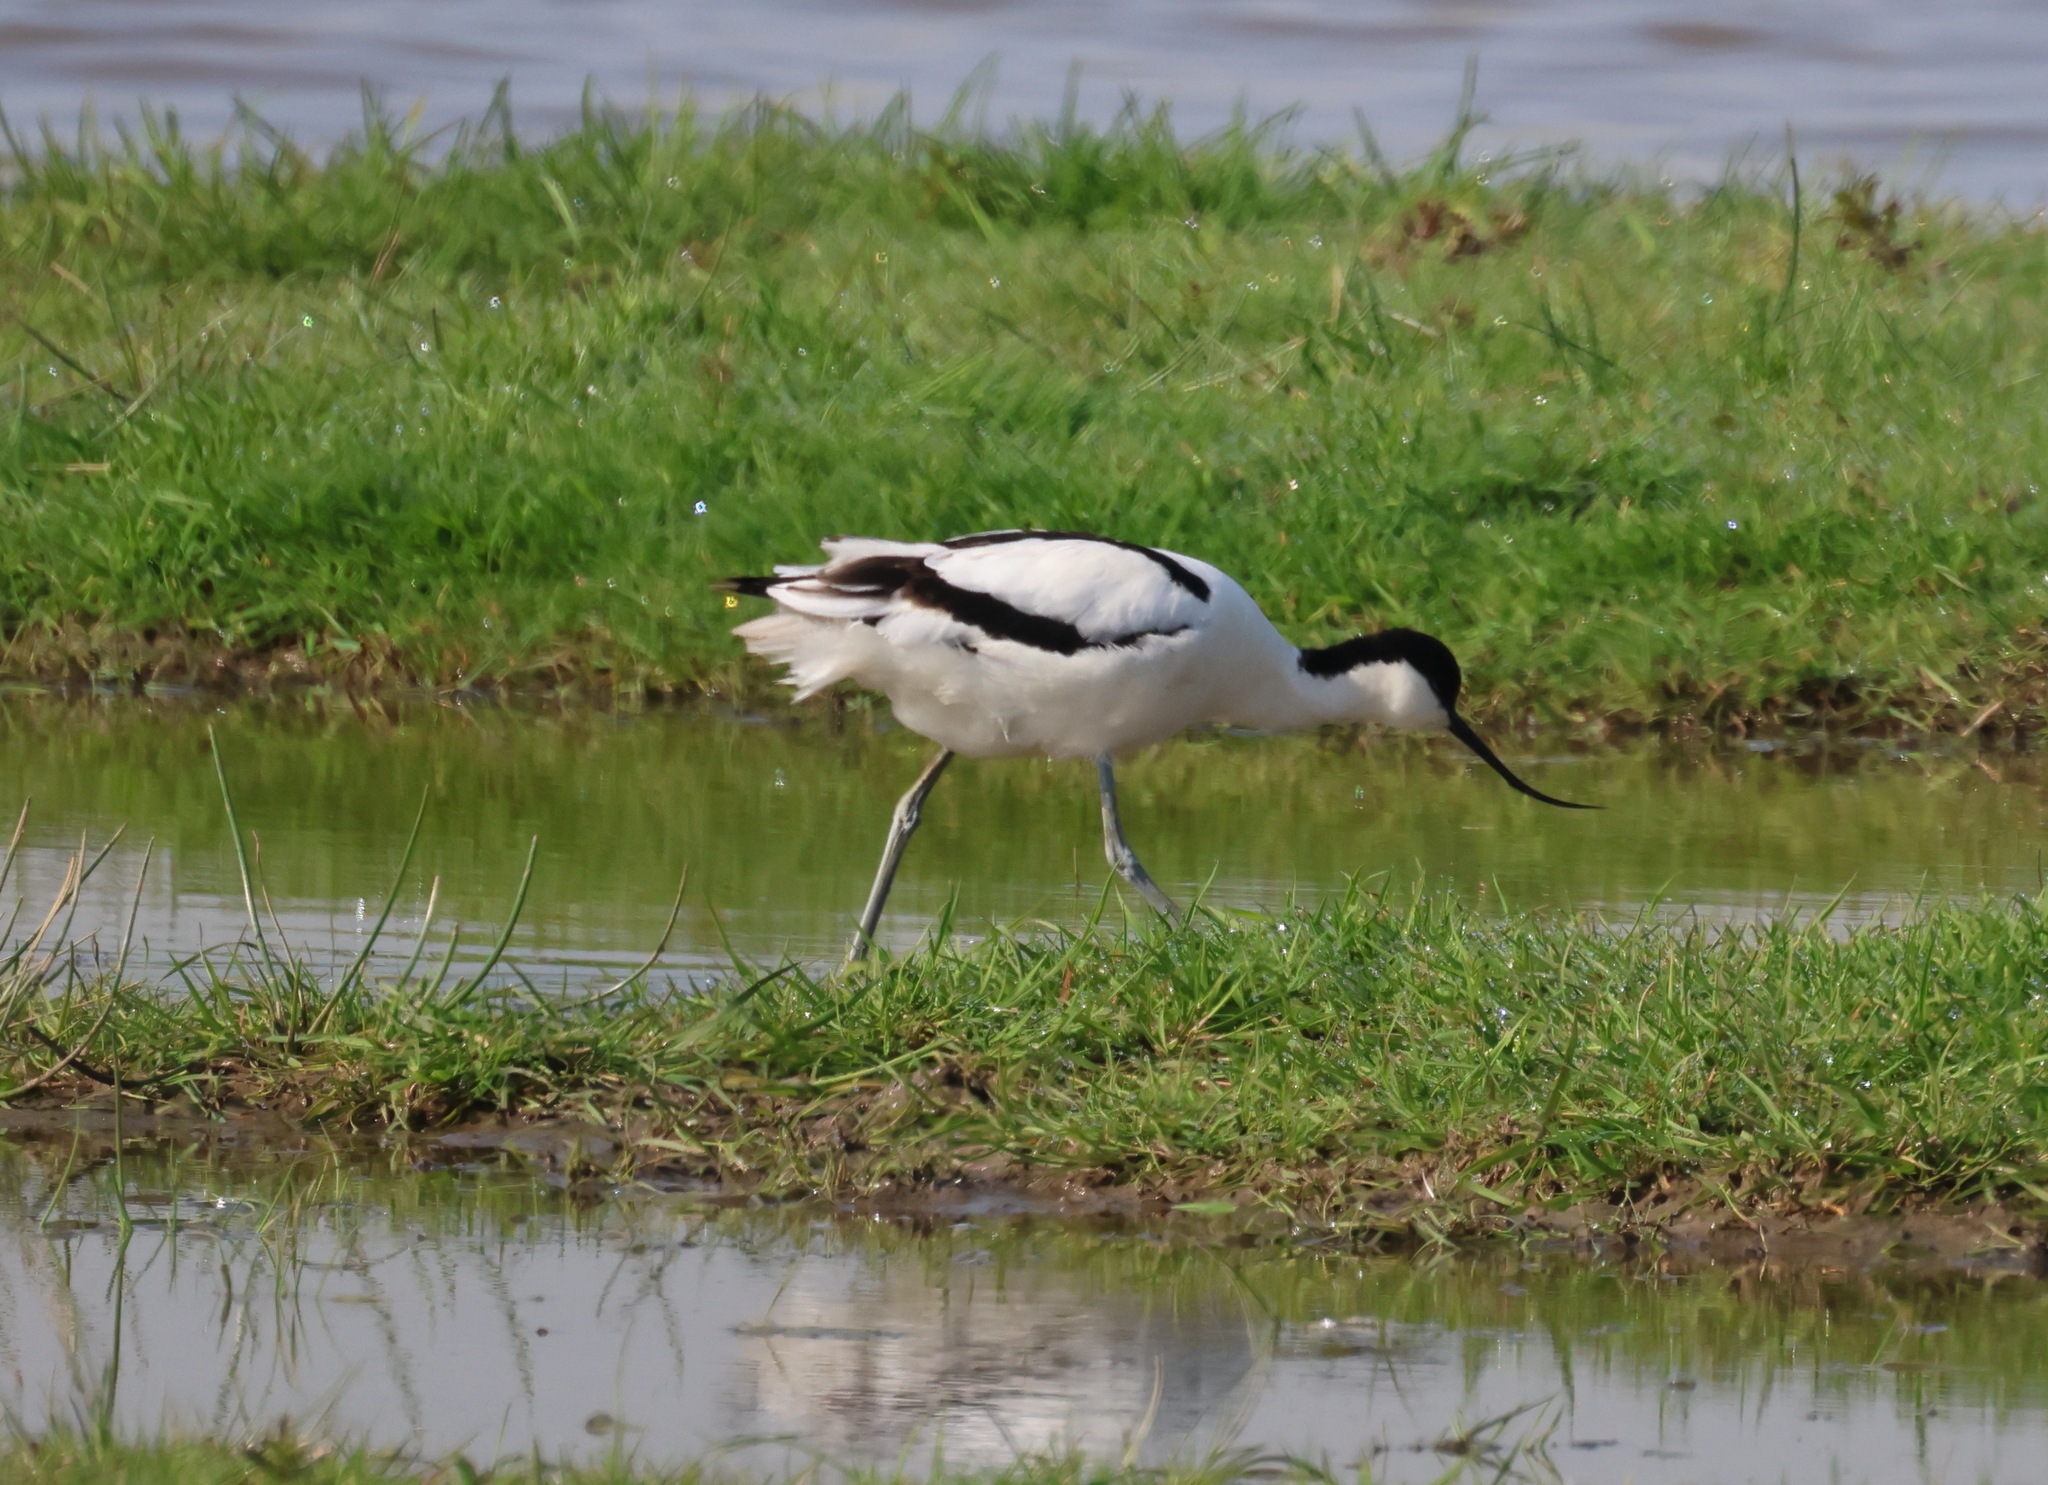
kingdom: Animalia
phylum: Chordata
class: Aves
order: Charadriiformes
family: Recurvirostridae
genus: Recurvirostra
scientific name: Recurvirostra avosetta
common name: Pied avocet
